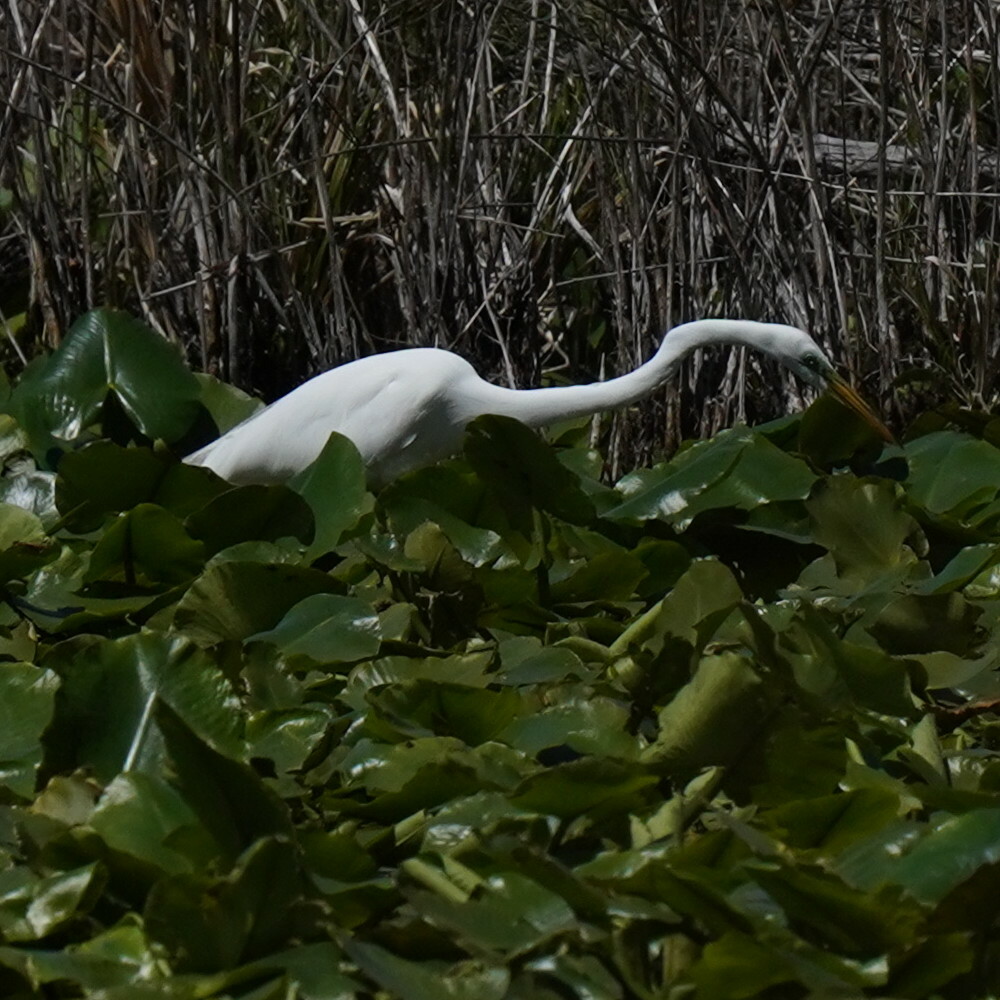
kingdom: Animalia
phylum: Chordata
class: Aves
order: Pelecaniformes
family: Ardeidae
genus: Ardea
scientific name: Ardea alba
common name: Great egret
